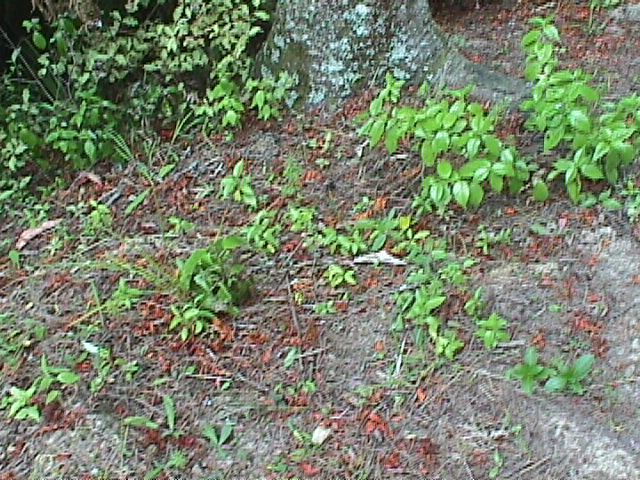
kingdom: Plantae
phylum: Tracheophyta
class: Magnoliopsida
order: Gentianales
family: Loganiaceae
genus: Geniostoma
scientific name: Geniostoma ligustrifolium
